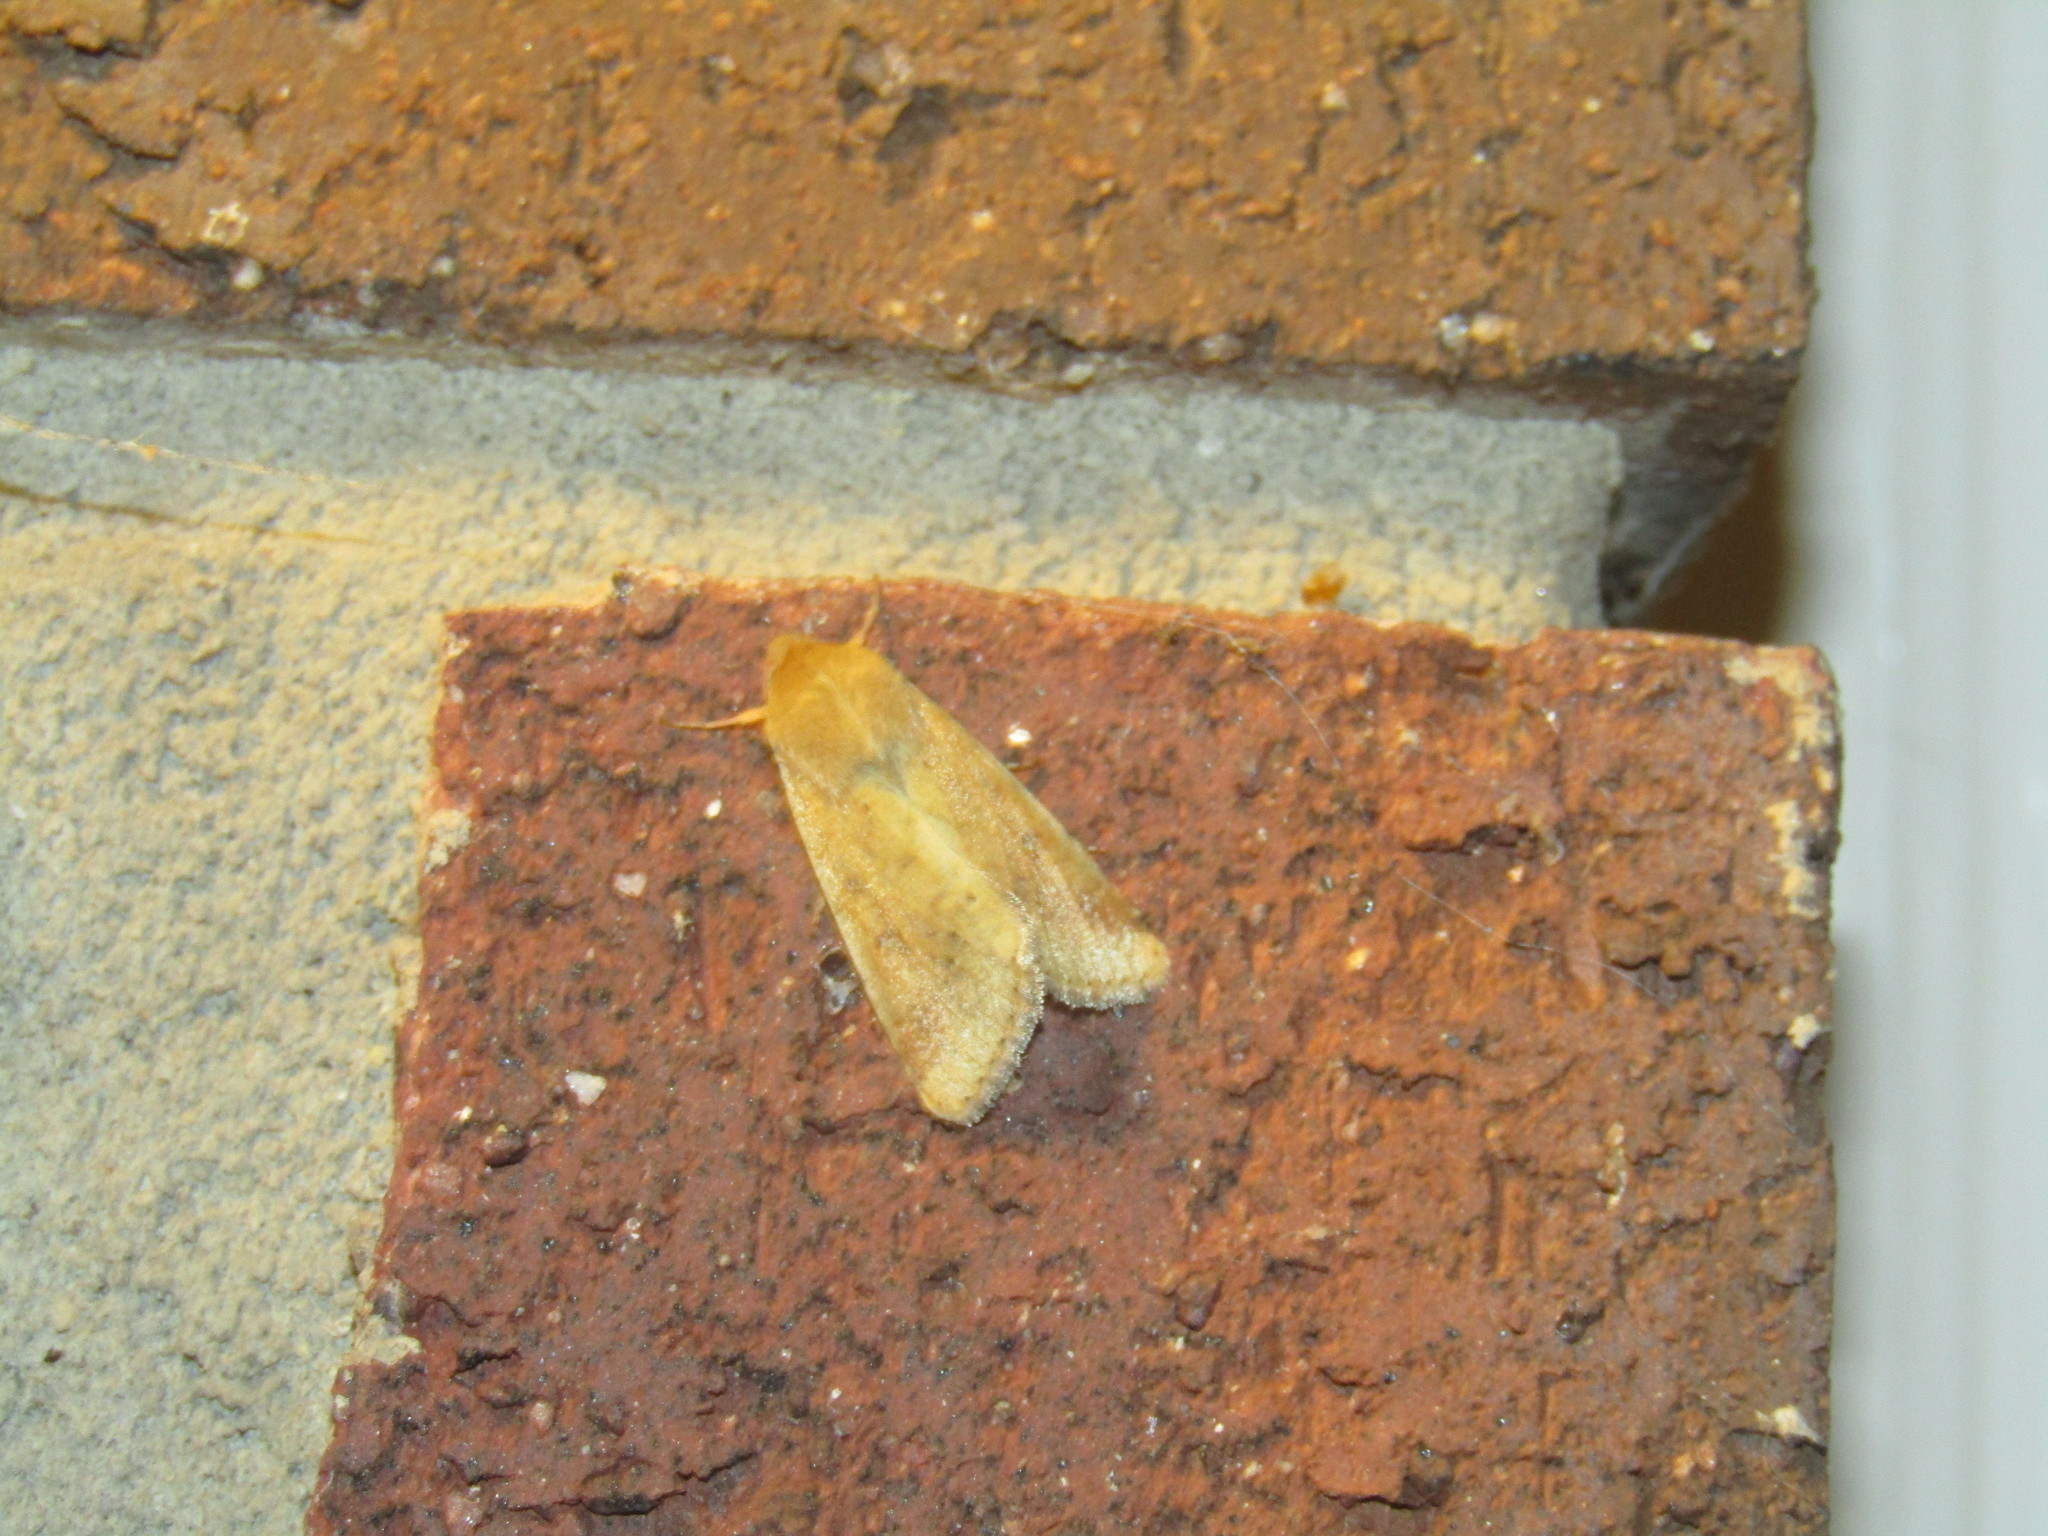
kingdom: Animalia
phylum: Arthropoda
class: Insecta
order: Lepidoptera
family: Noctuidae
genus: Helicoverpa
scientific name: Helicoverpa zea
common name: Bollworm
